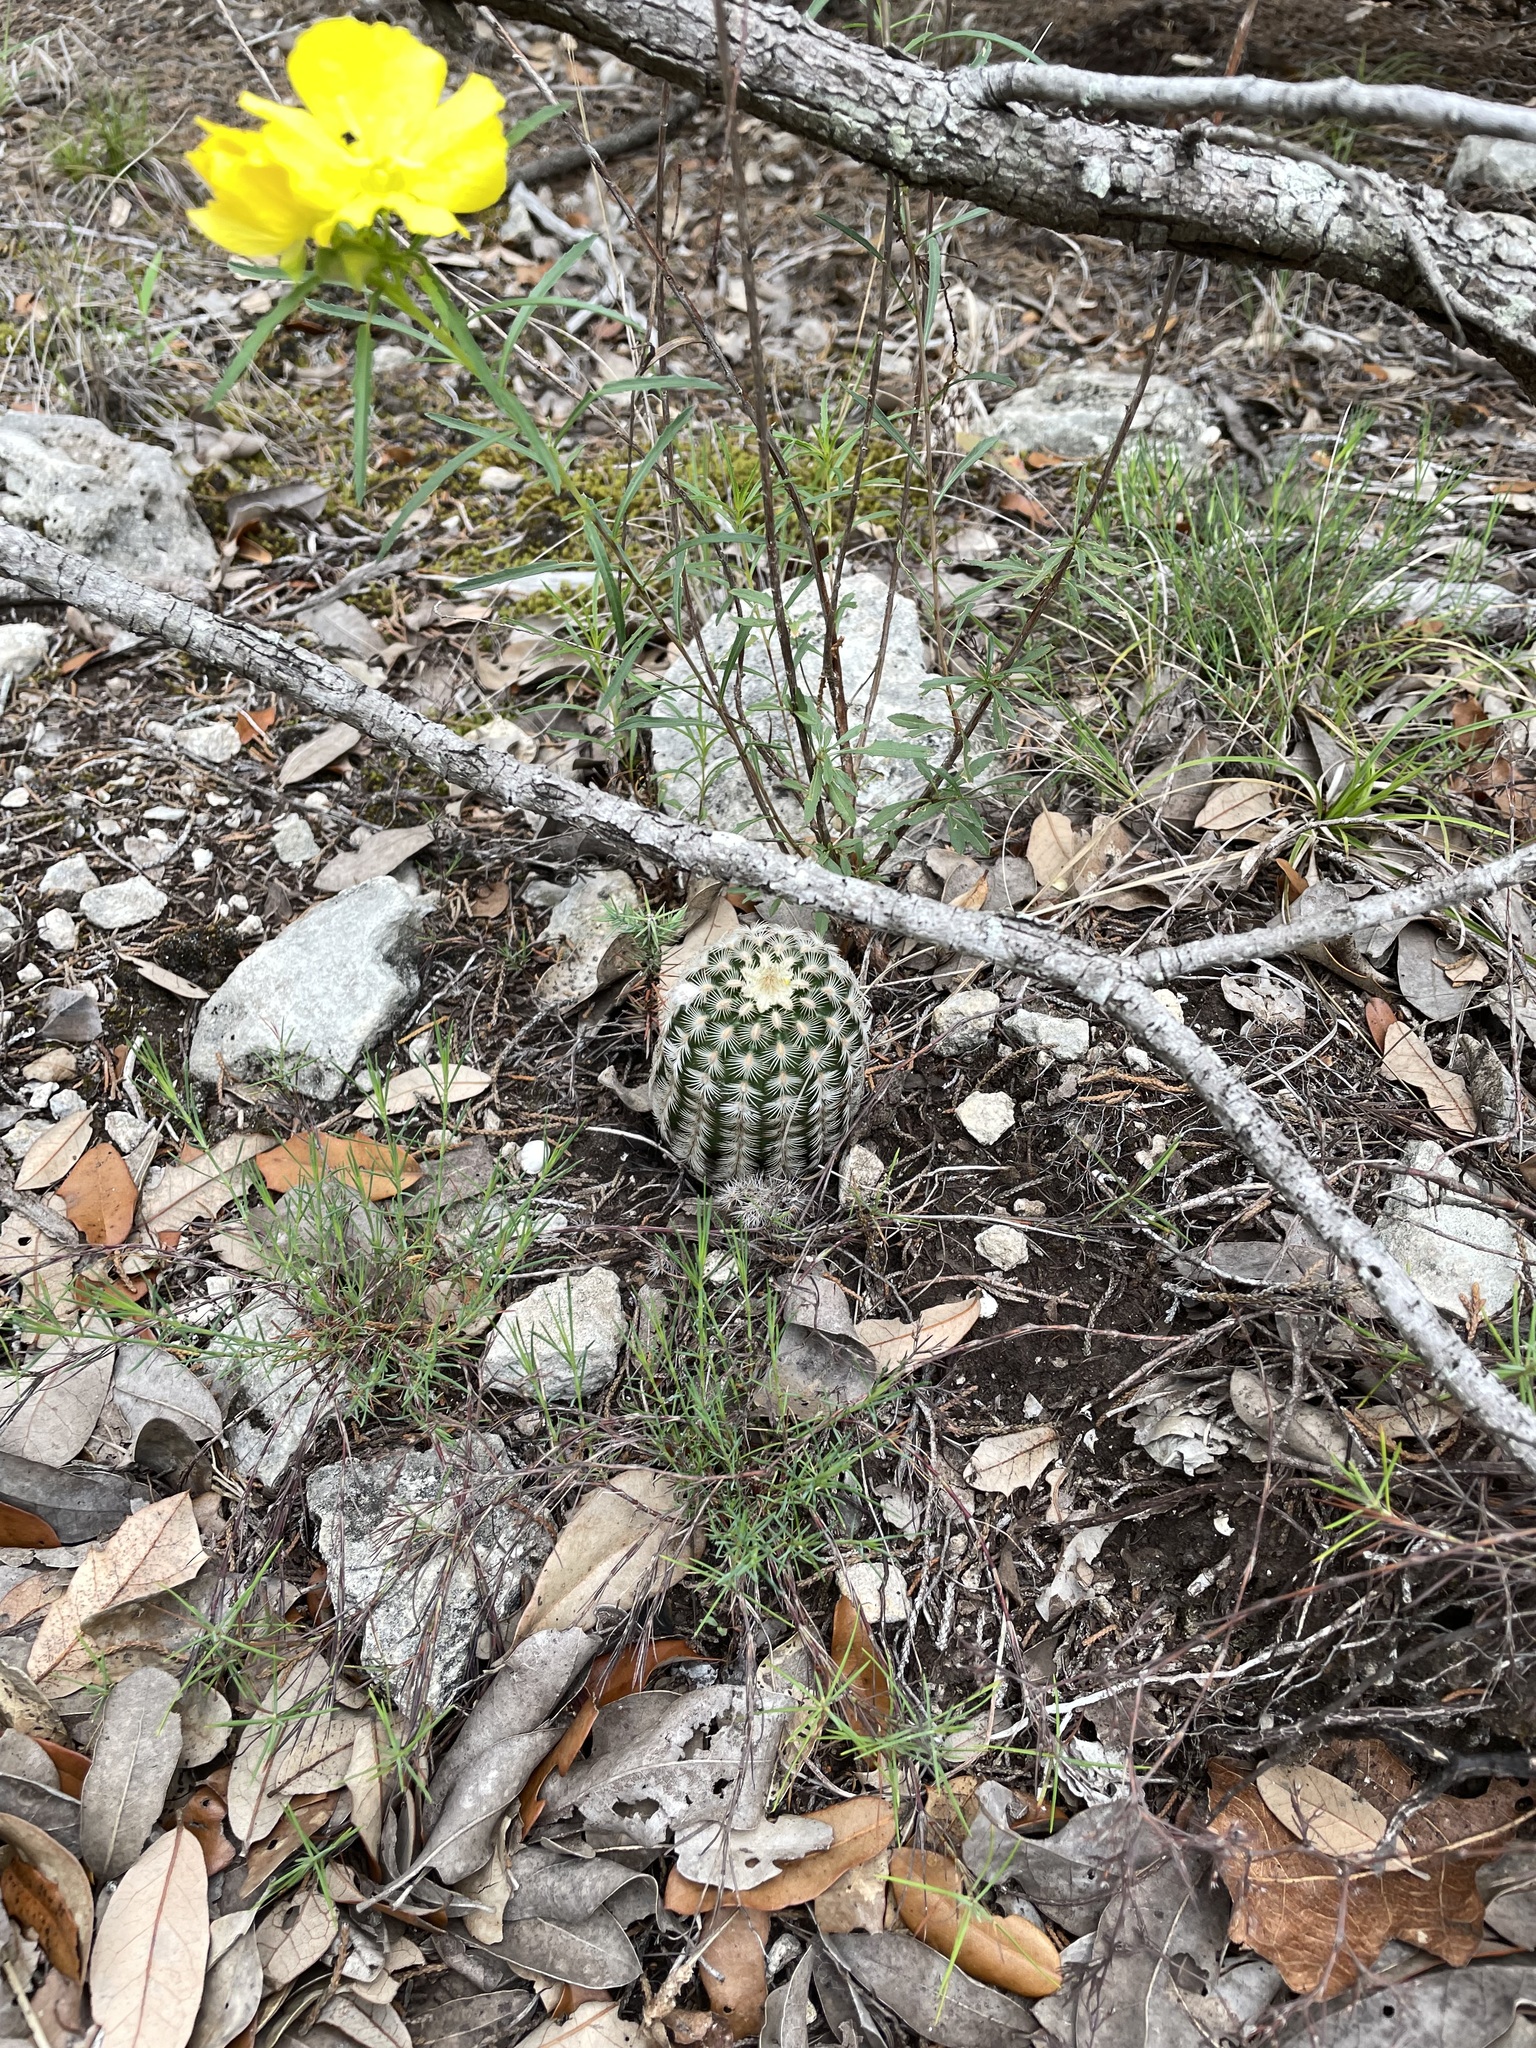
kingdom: Plantae
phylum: Tracheophyta
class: Magnoliopsida
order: Caryophyllales
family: Cactaceae
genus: Echinocereus
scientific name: Echinocereus reichenbachii
